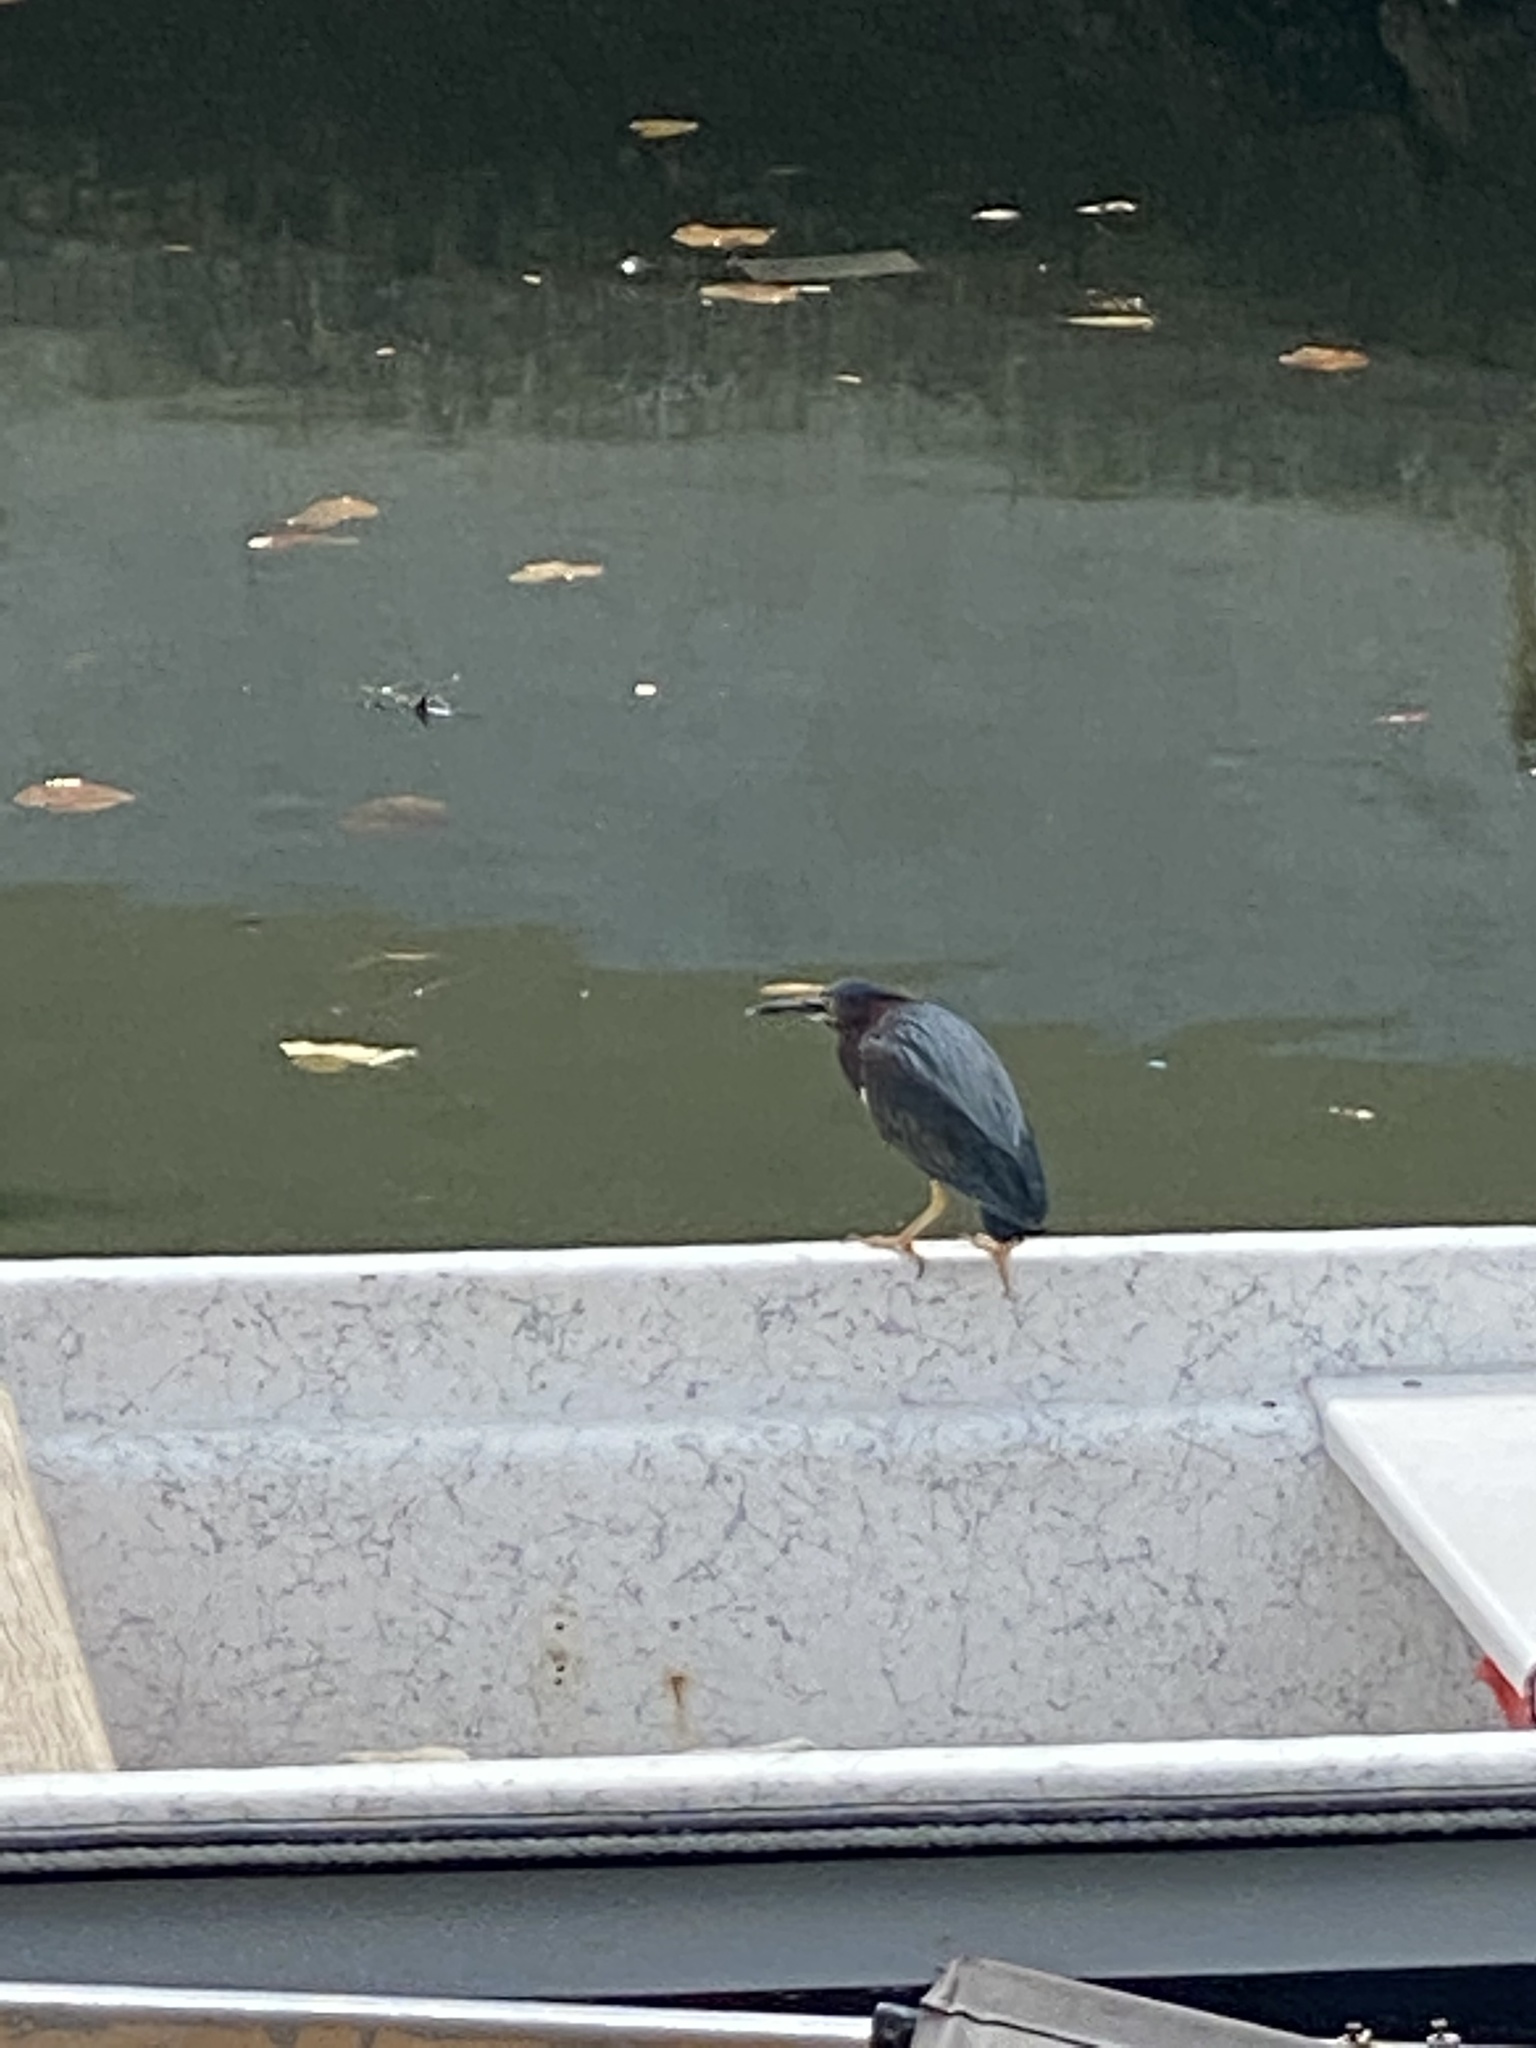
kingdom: Animalia
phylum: Chordata
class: Aves
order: Pelecaniformes
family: Ardeidae
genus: Butorides
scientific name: Butorides virescens
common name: Green heron
